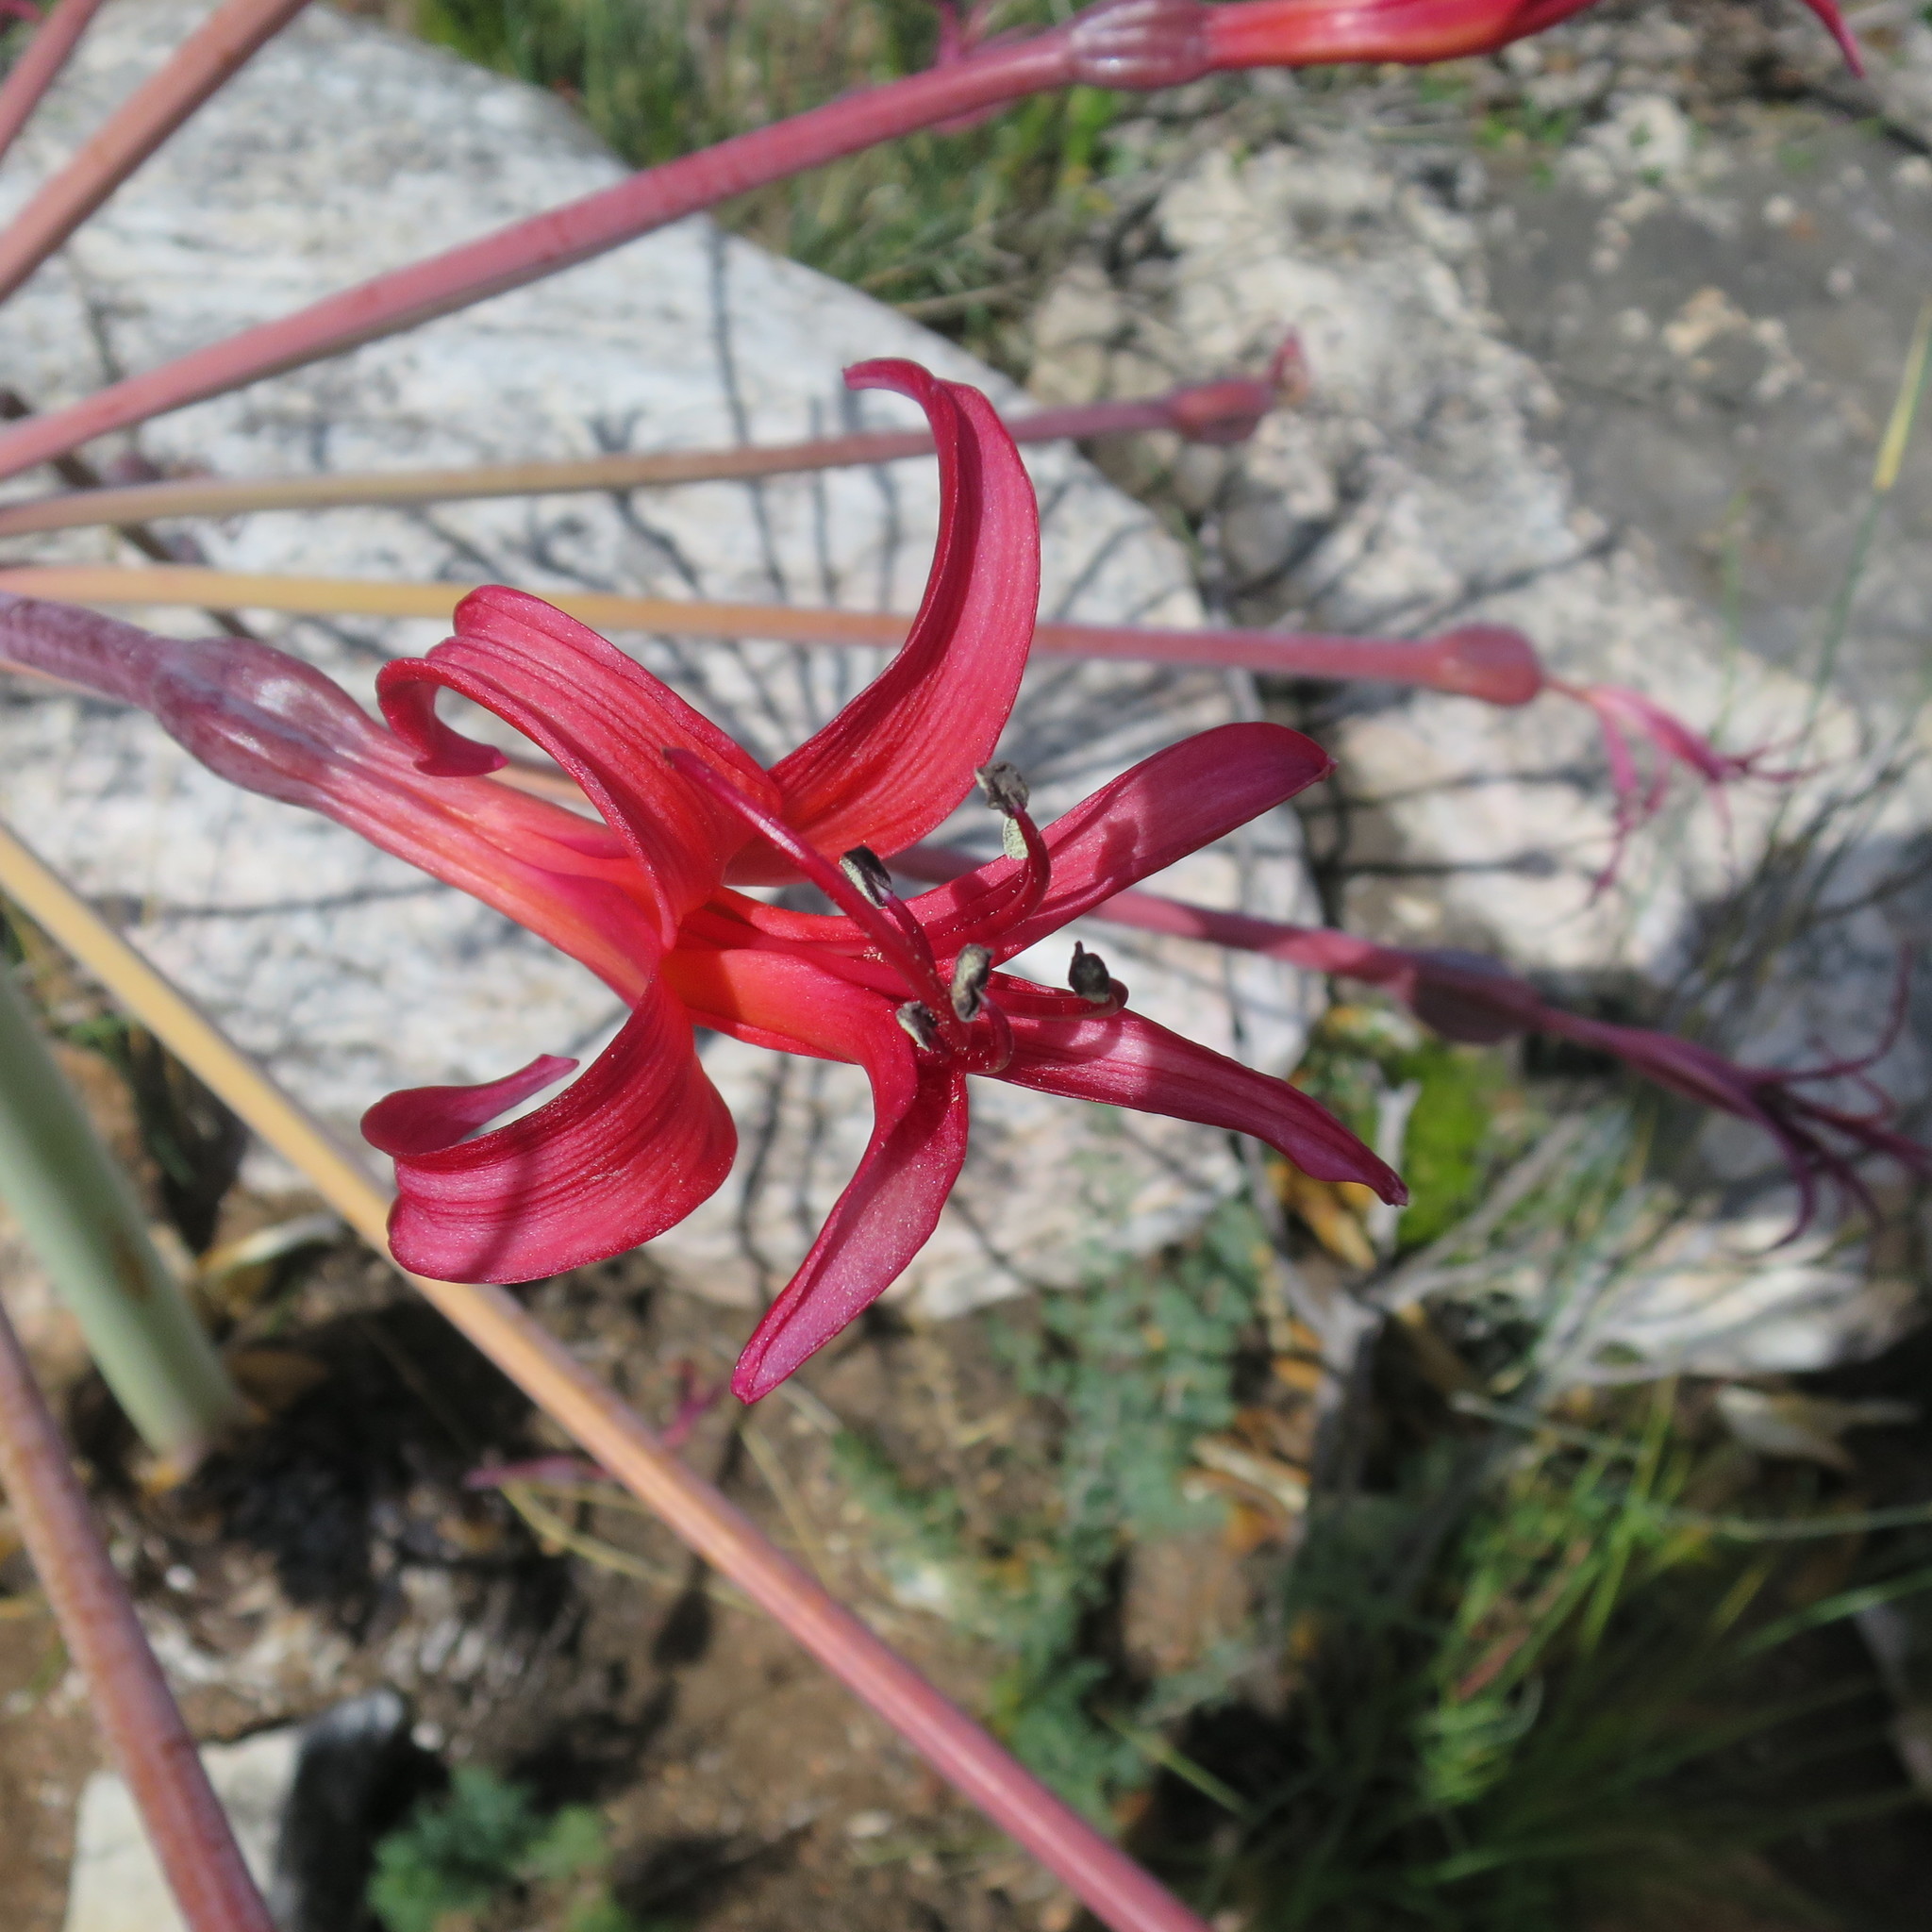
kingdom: Plantae
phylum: Tracheophyta
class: Liliopsida
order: Asparagales
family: Amaryllidaceae
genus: Brunsvigia
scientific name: Brunsvigia josephinae
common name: Josephine's-lily
